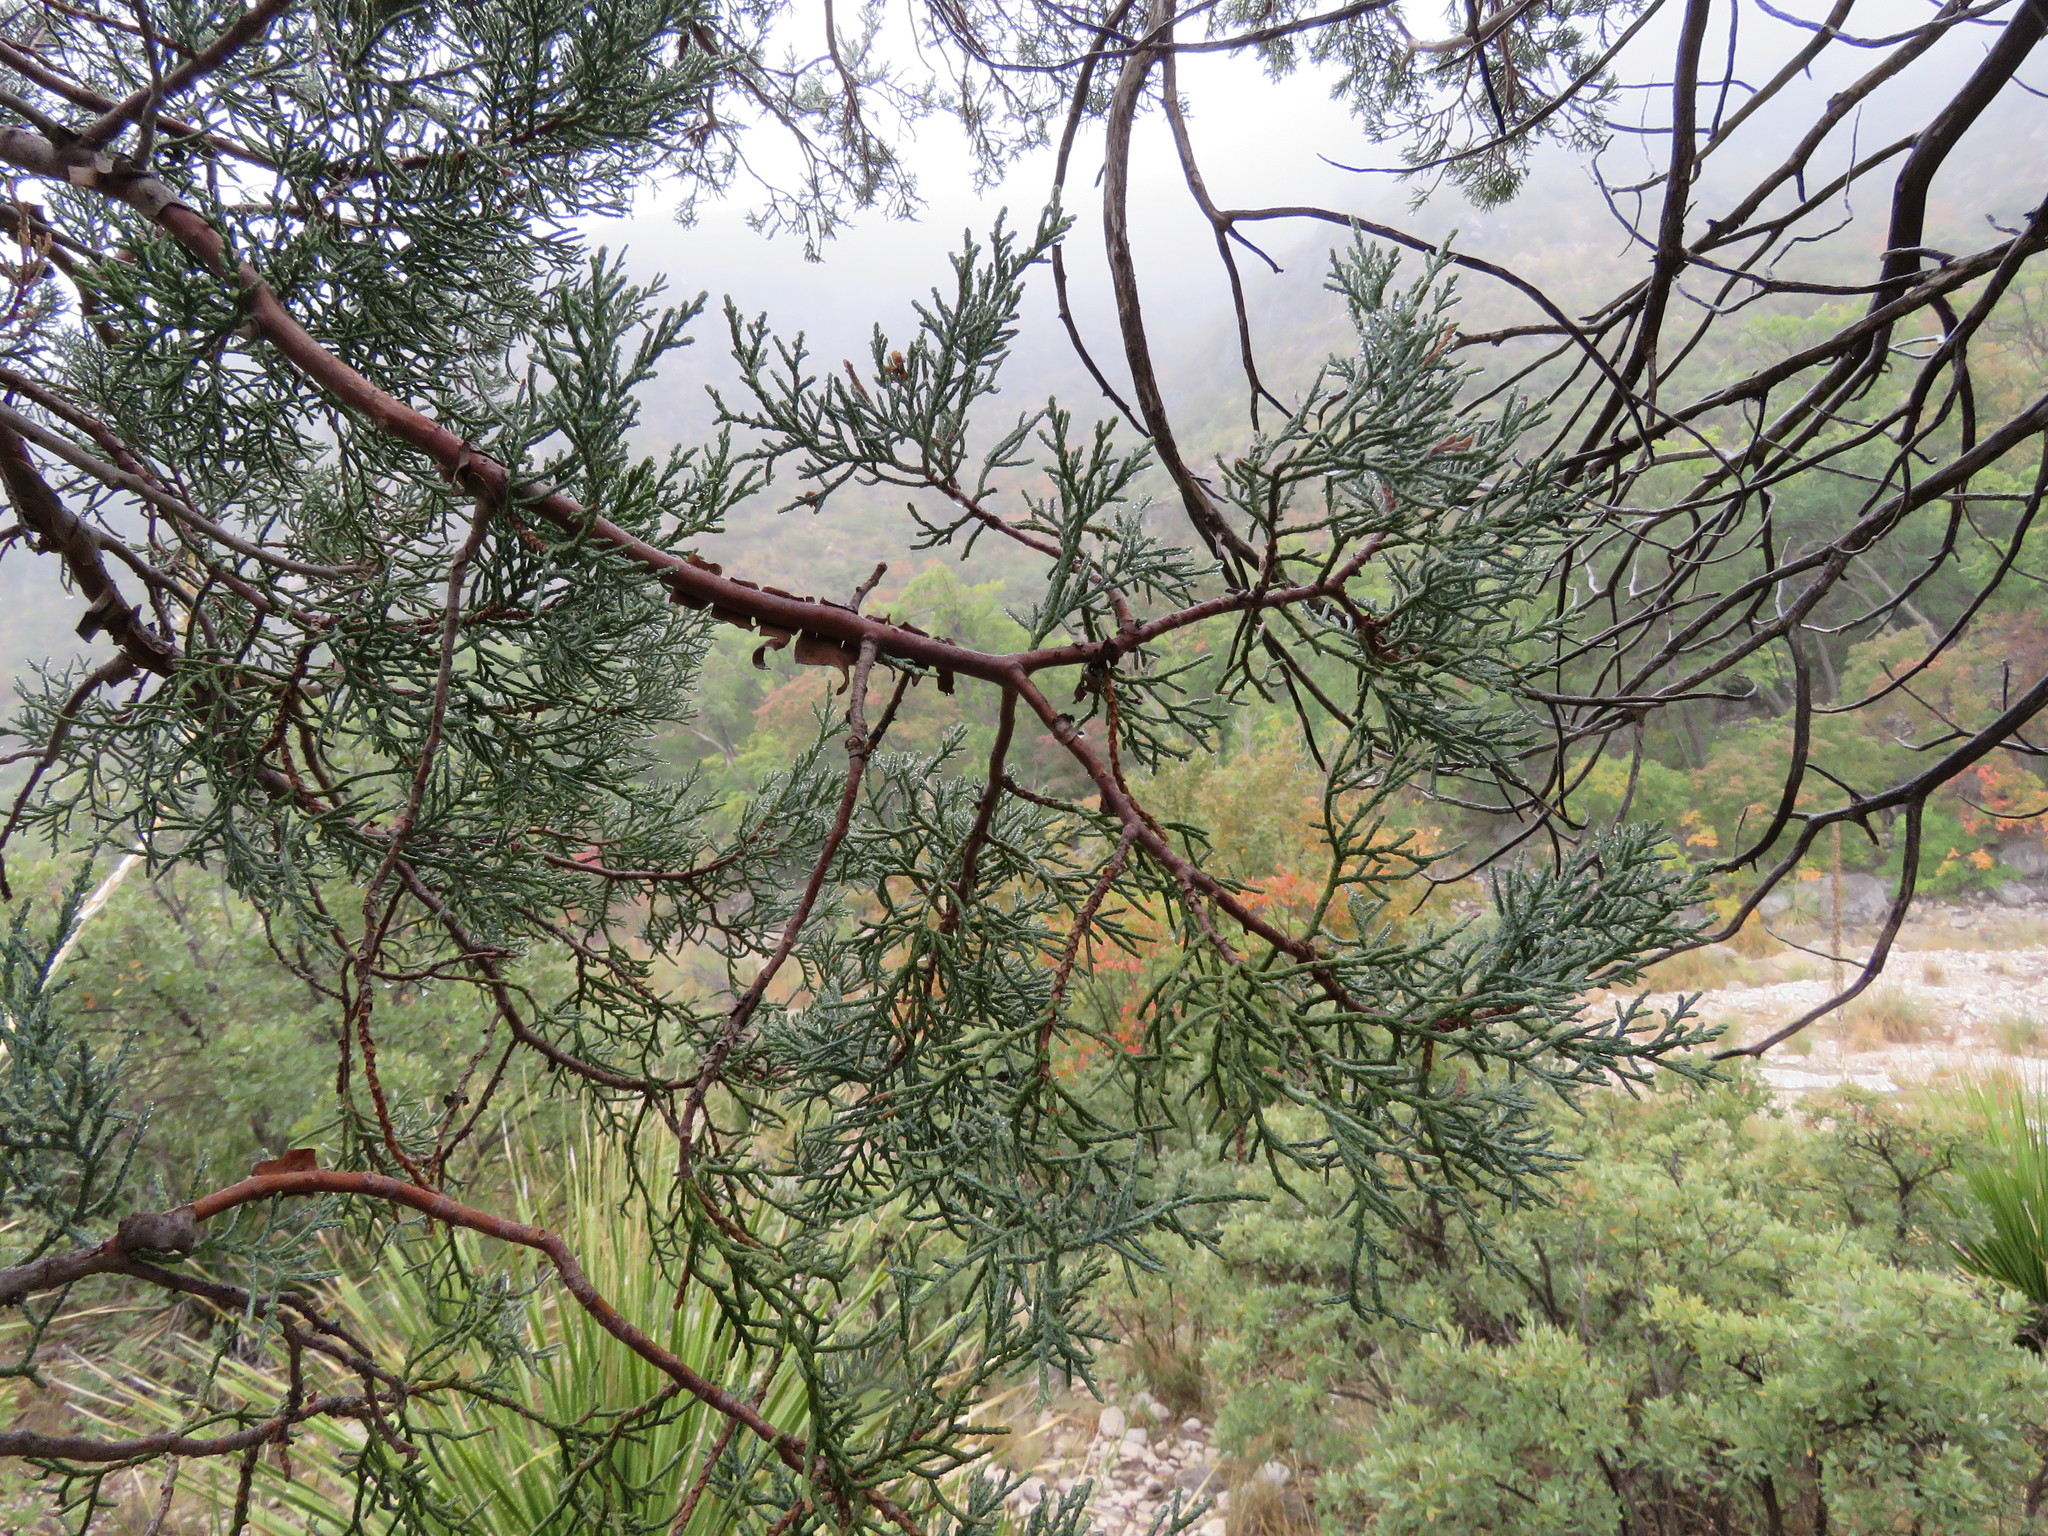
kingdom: Plantae
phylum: Tracheophyta
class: Pinopsida
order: Pinales
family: Cupressaceae
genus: Juniperus
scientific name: Juniperus deppeana
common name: Alligator juniper
